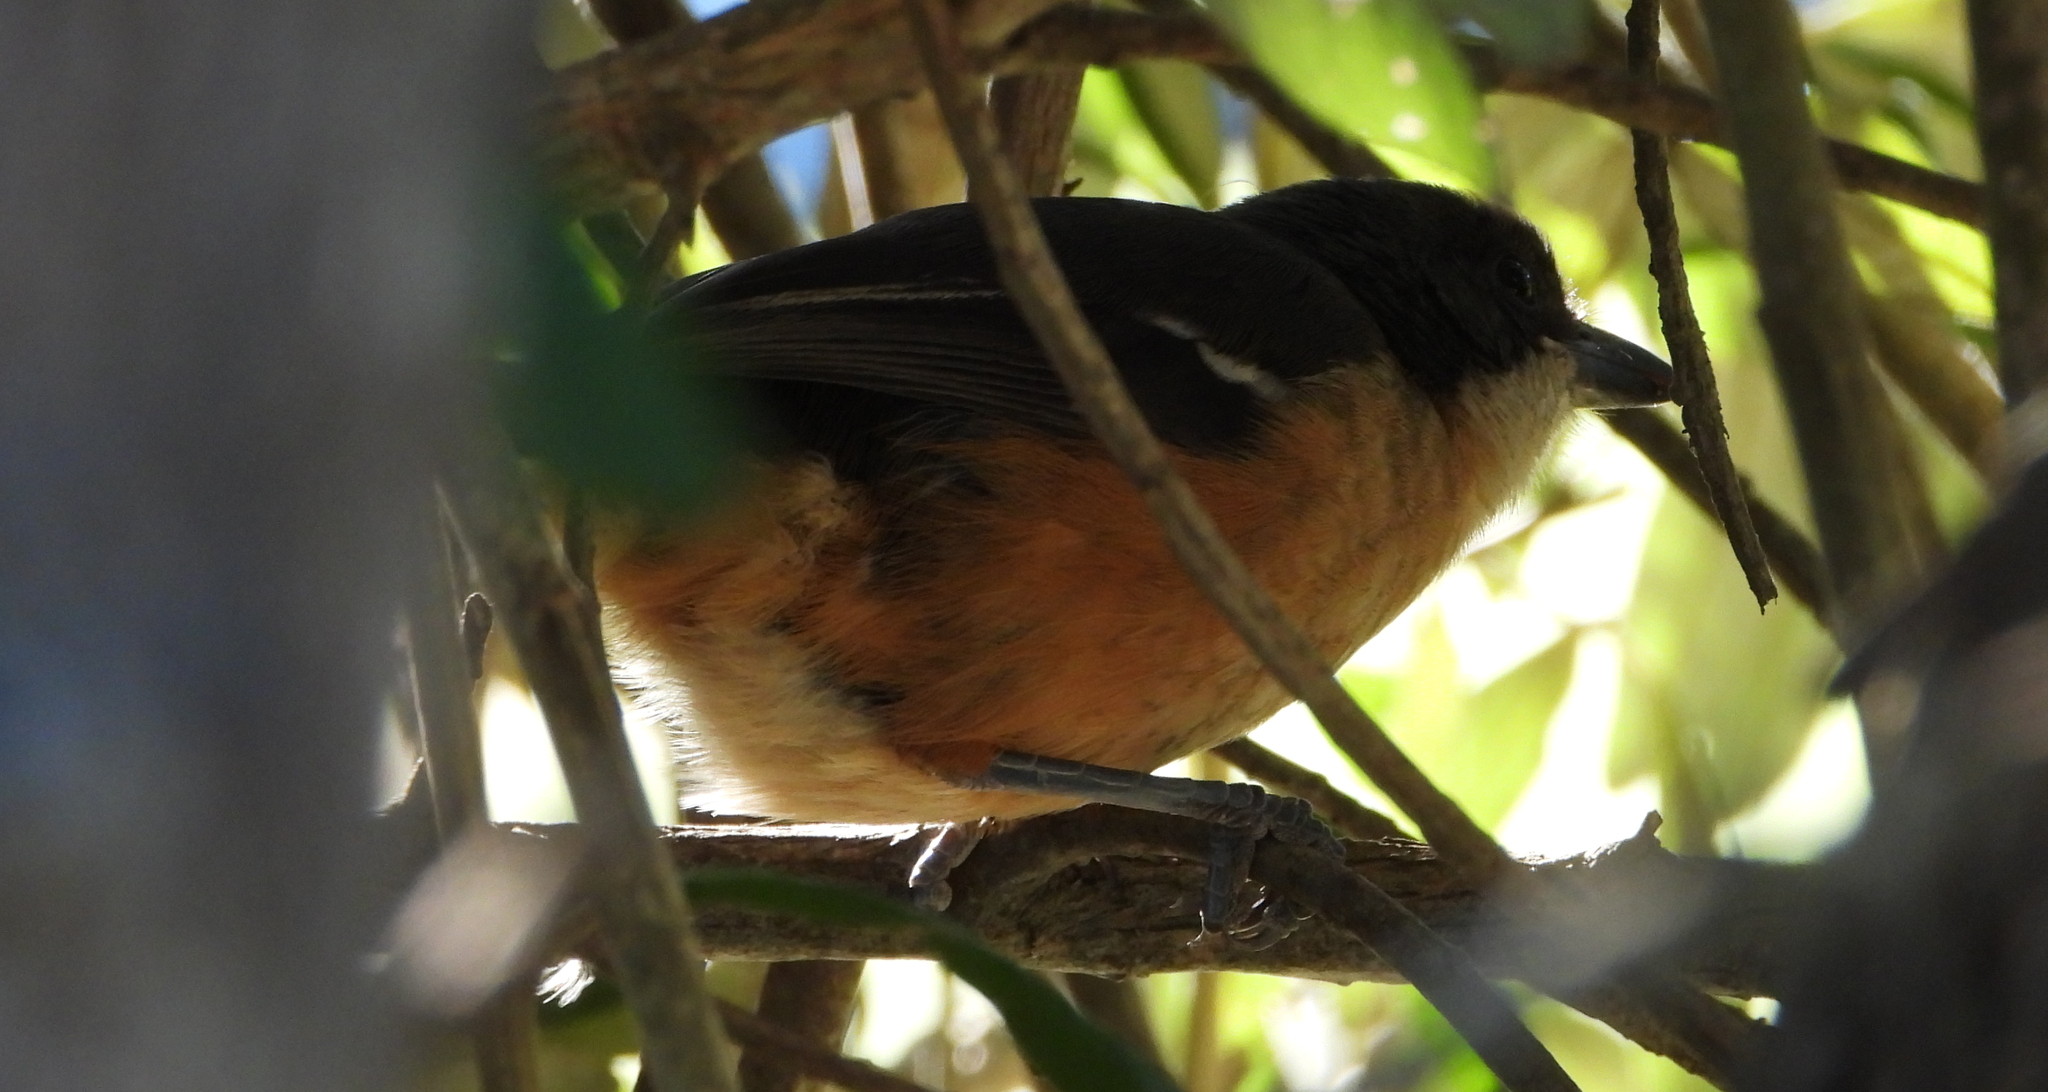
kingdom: Animalia
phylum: Chordata
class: Aves
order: Passeriformes
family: Malaconotidae
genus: Laniarius
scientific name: Laniarius ferrugineus
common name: Southern boubou
